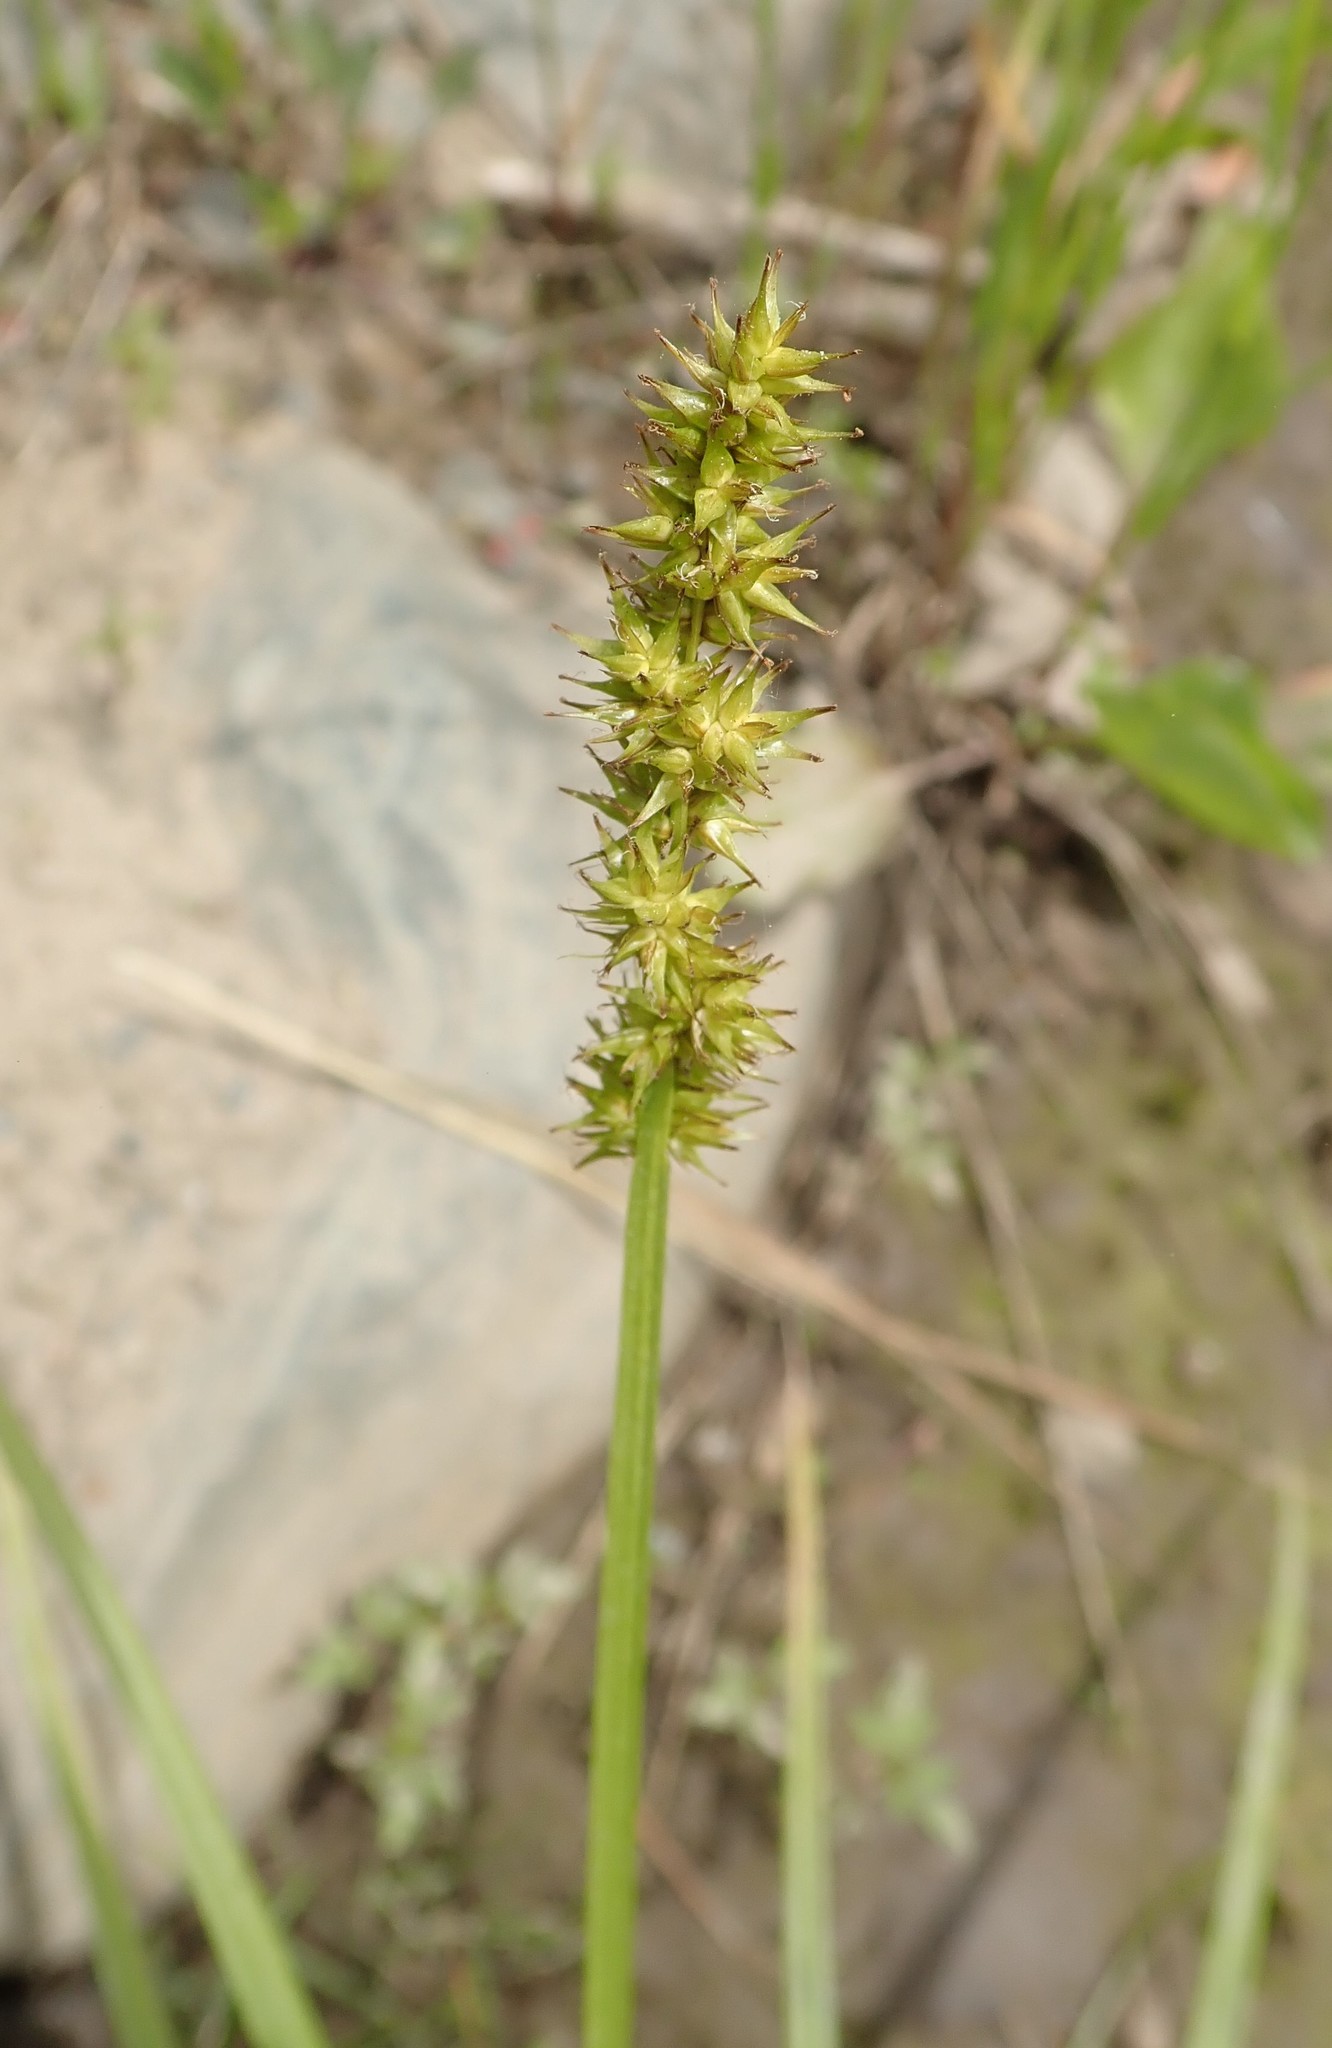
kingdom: Plantae
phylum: Tracheophyta
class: Liliopsida
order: Poales
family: Cyperaceae
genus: Carex
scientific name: Carex stipata
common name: Awl-fruited sedge
